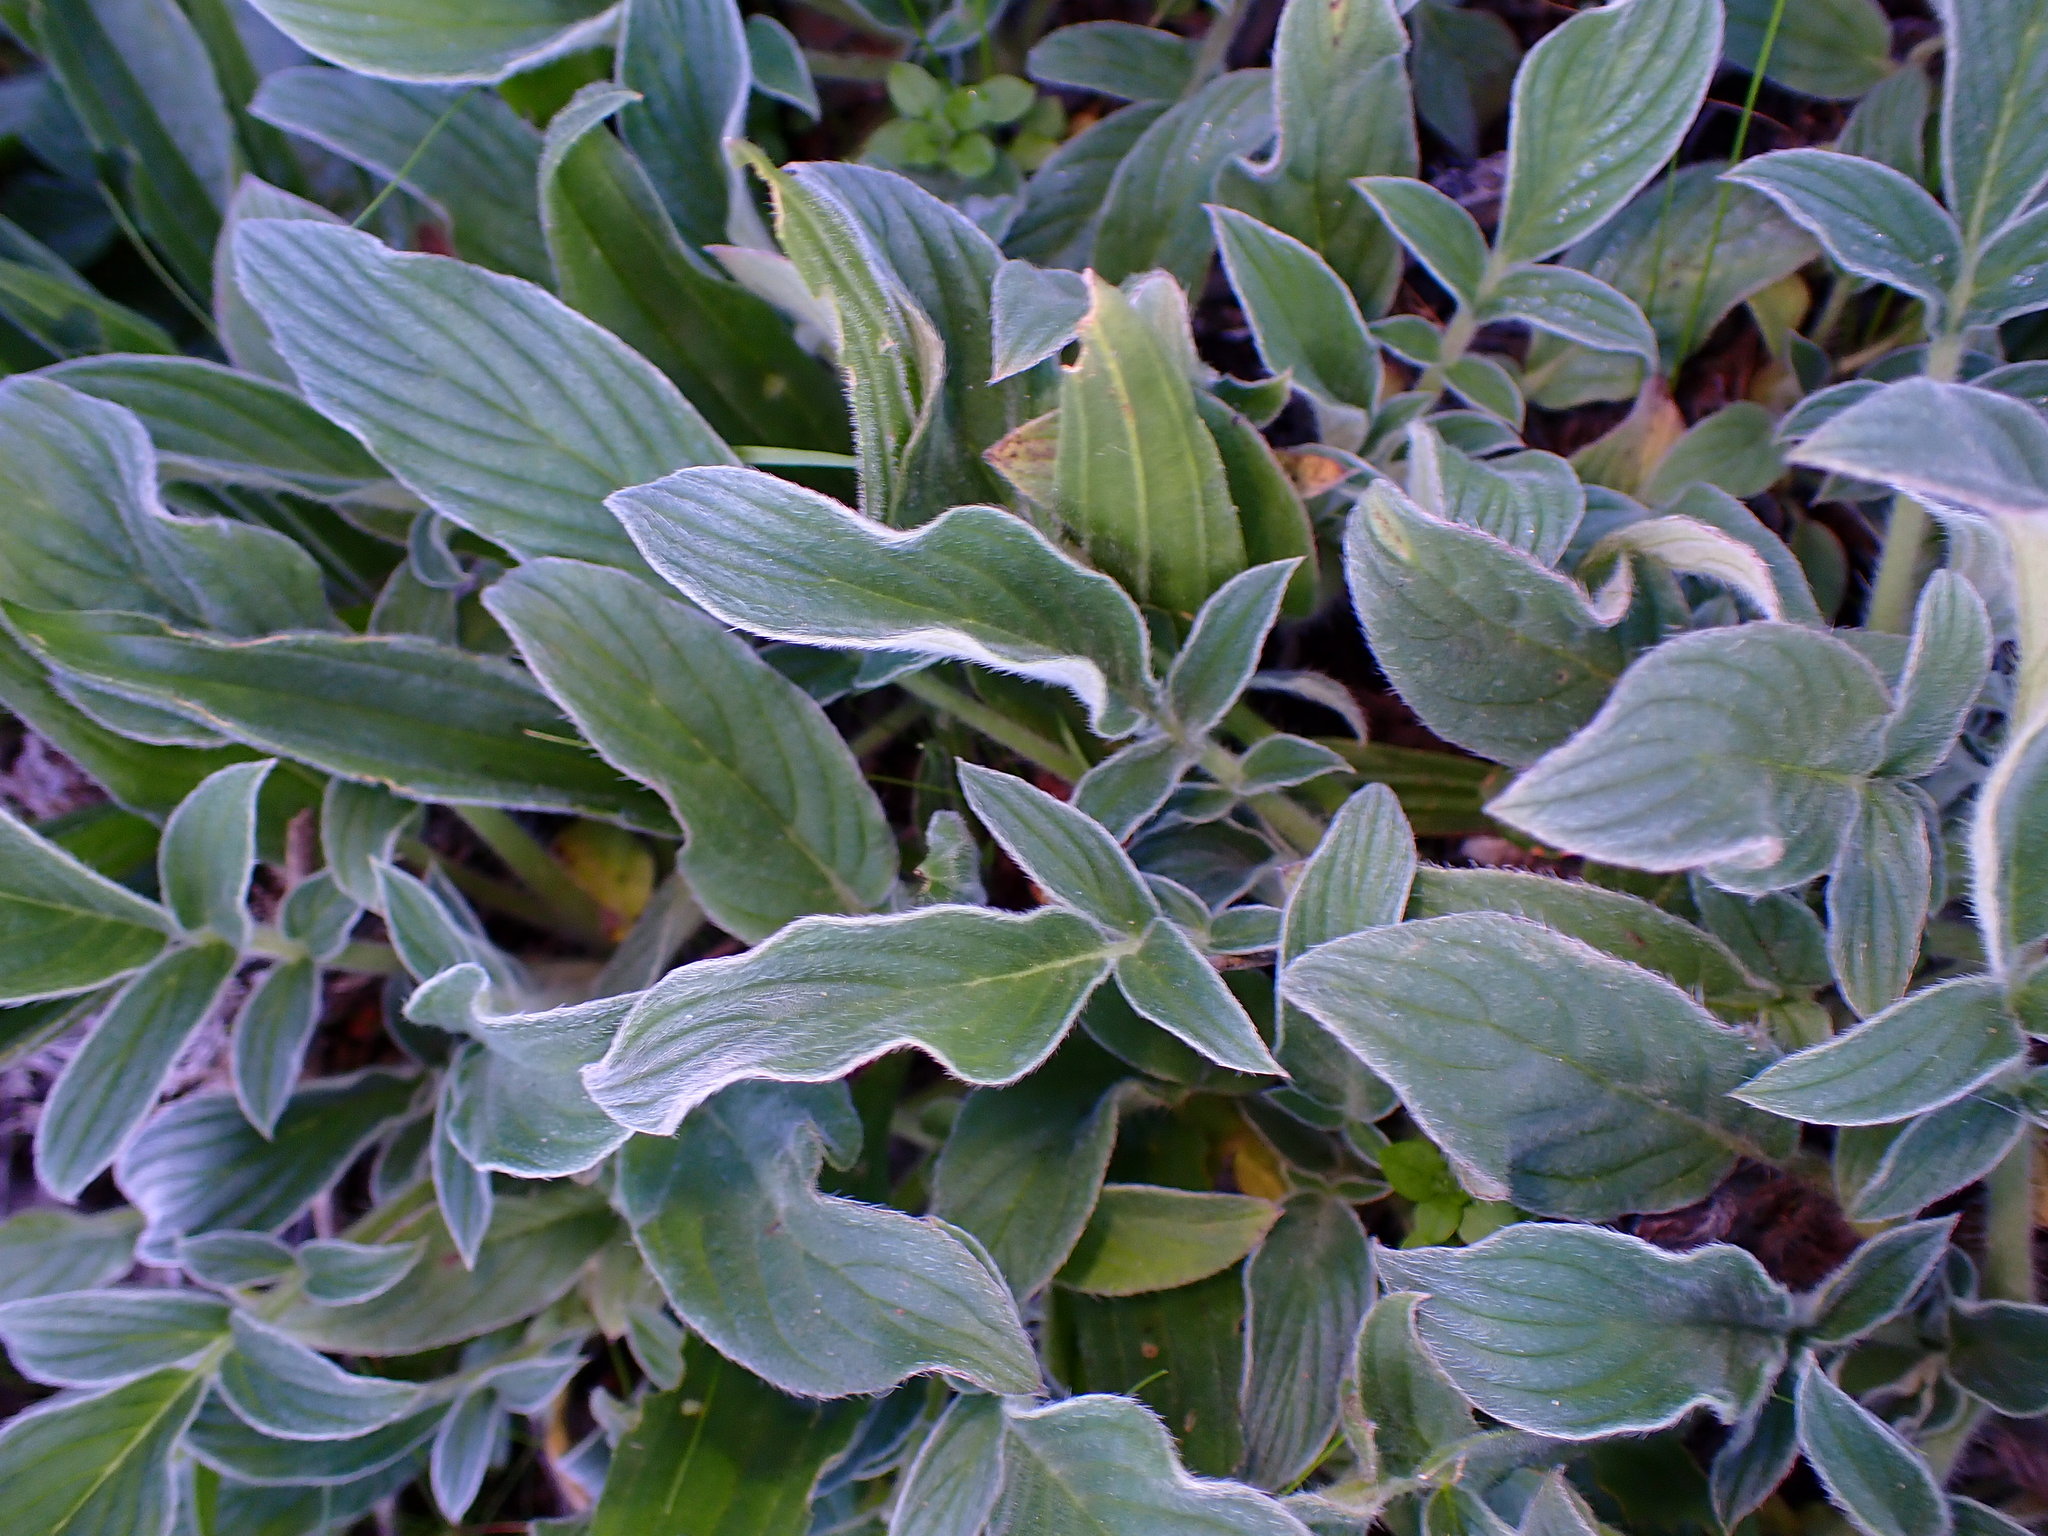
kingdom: Plantae
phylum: Tracheophyta
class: Magnoliopsida
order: Boraginales
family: Hydrophyllaceae
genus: Phacelia
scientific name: Phacelia californica
